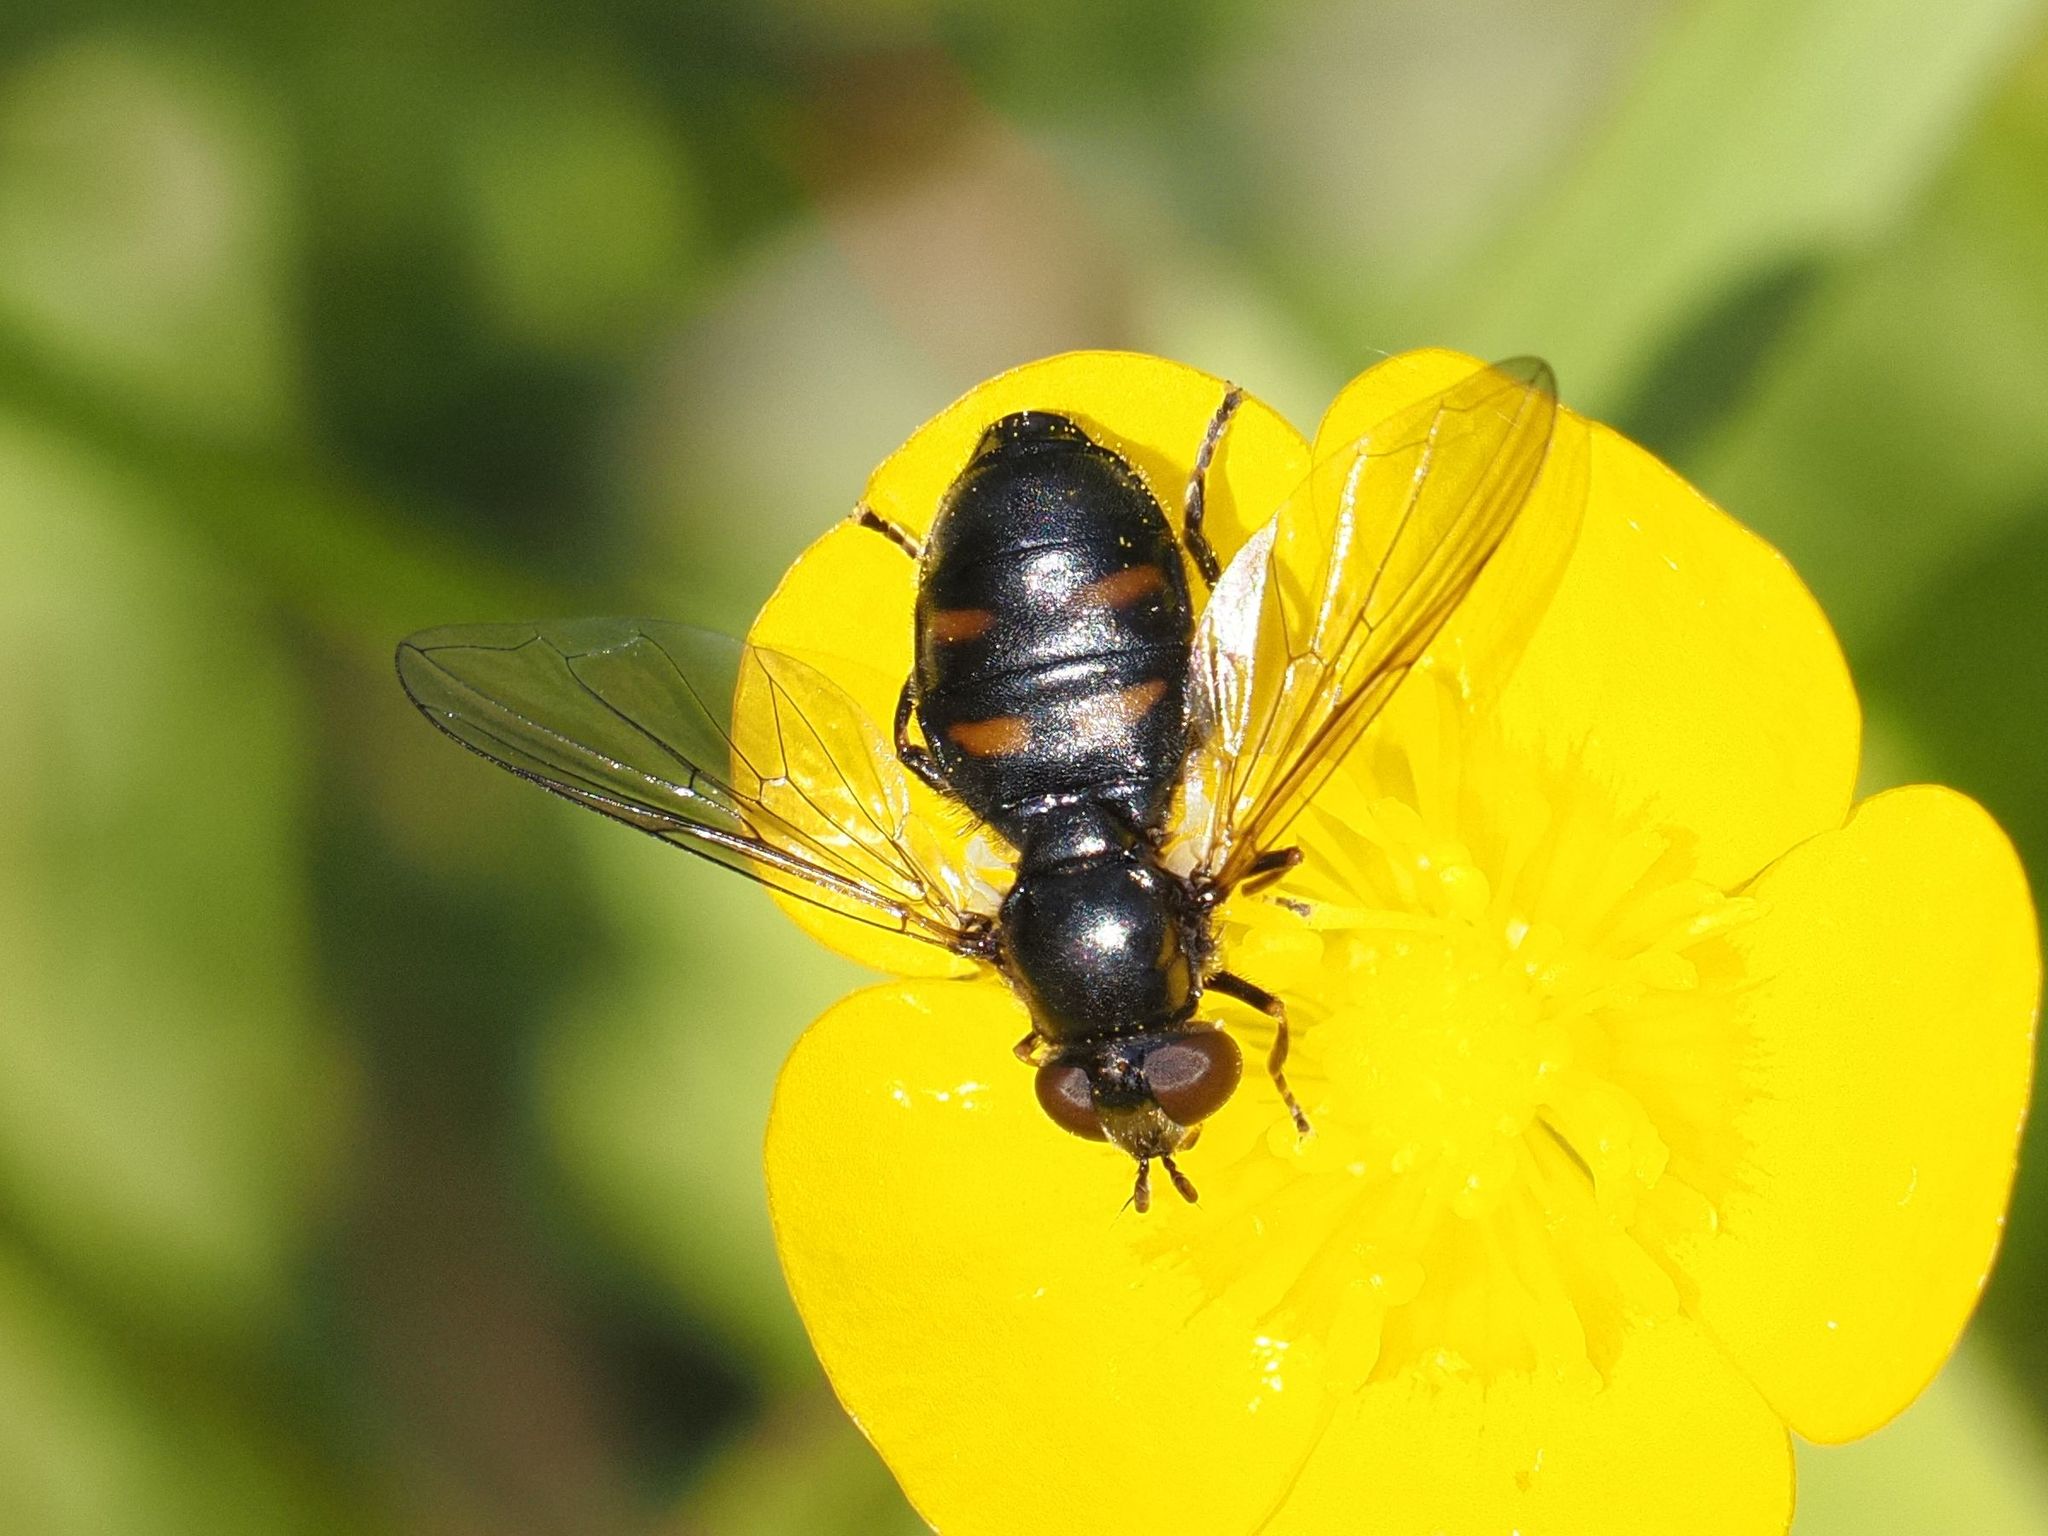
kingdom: Animalia
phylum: Arthropoda
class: Insecta
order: Diptera
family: Syrphidae
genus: Pipiza
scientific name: Pipiza quadrimaculata
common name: Four-spotted pipiza
